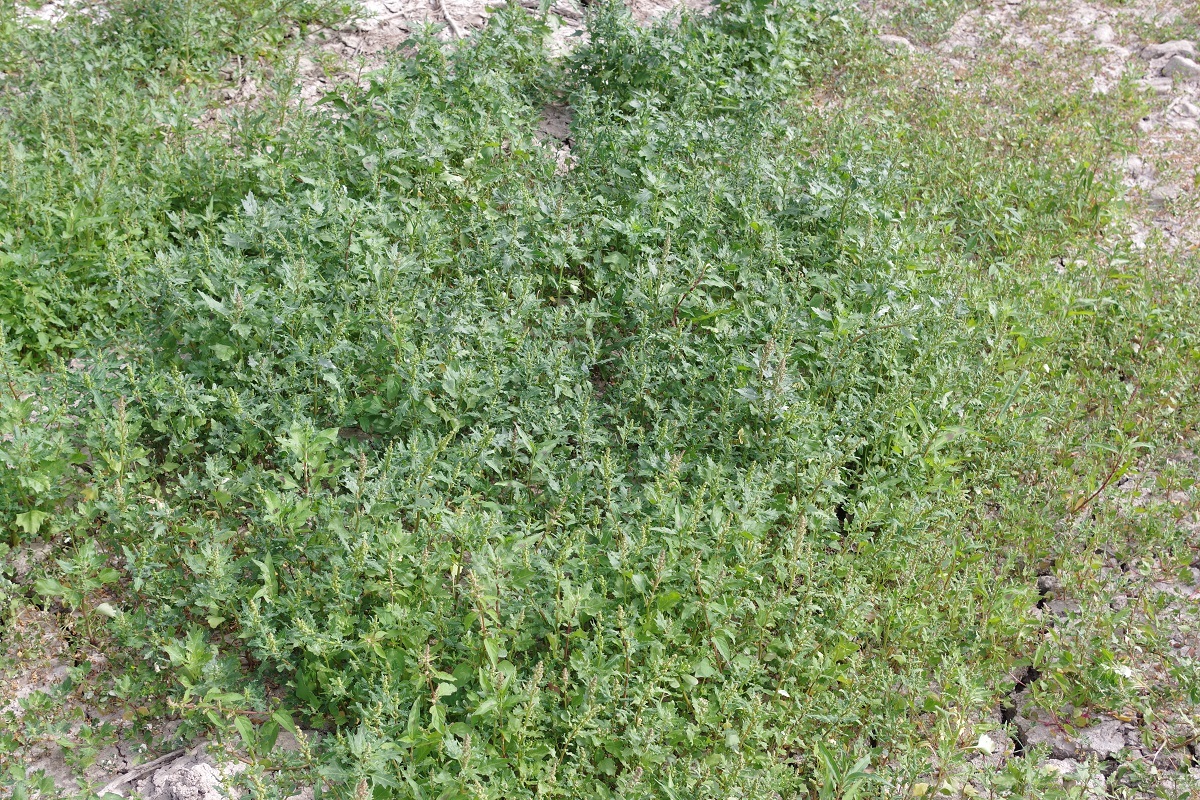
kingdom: Plantae
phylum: Tracheophyta
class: Magnoliopsida
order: Caryophyllales
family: Amaranthaceae
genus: Oxybasis
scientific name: Oxybasis glauca
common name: Glaucous goosefoot
